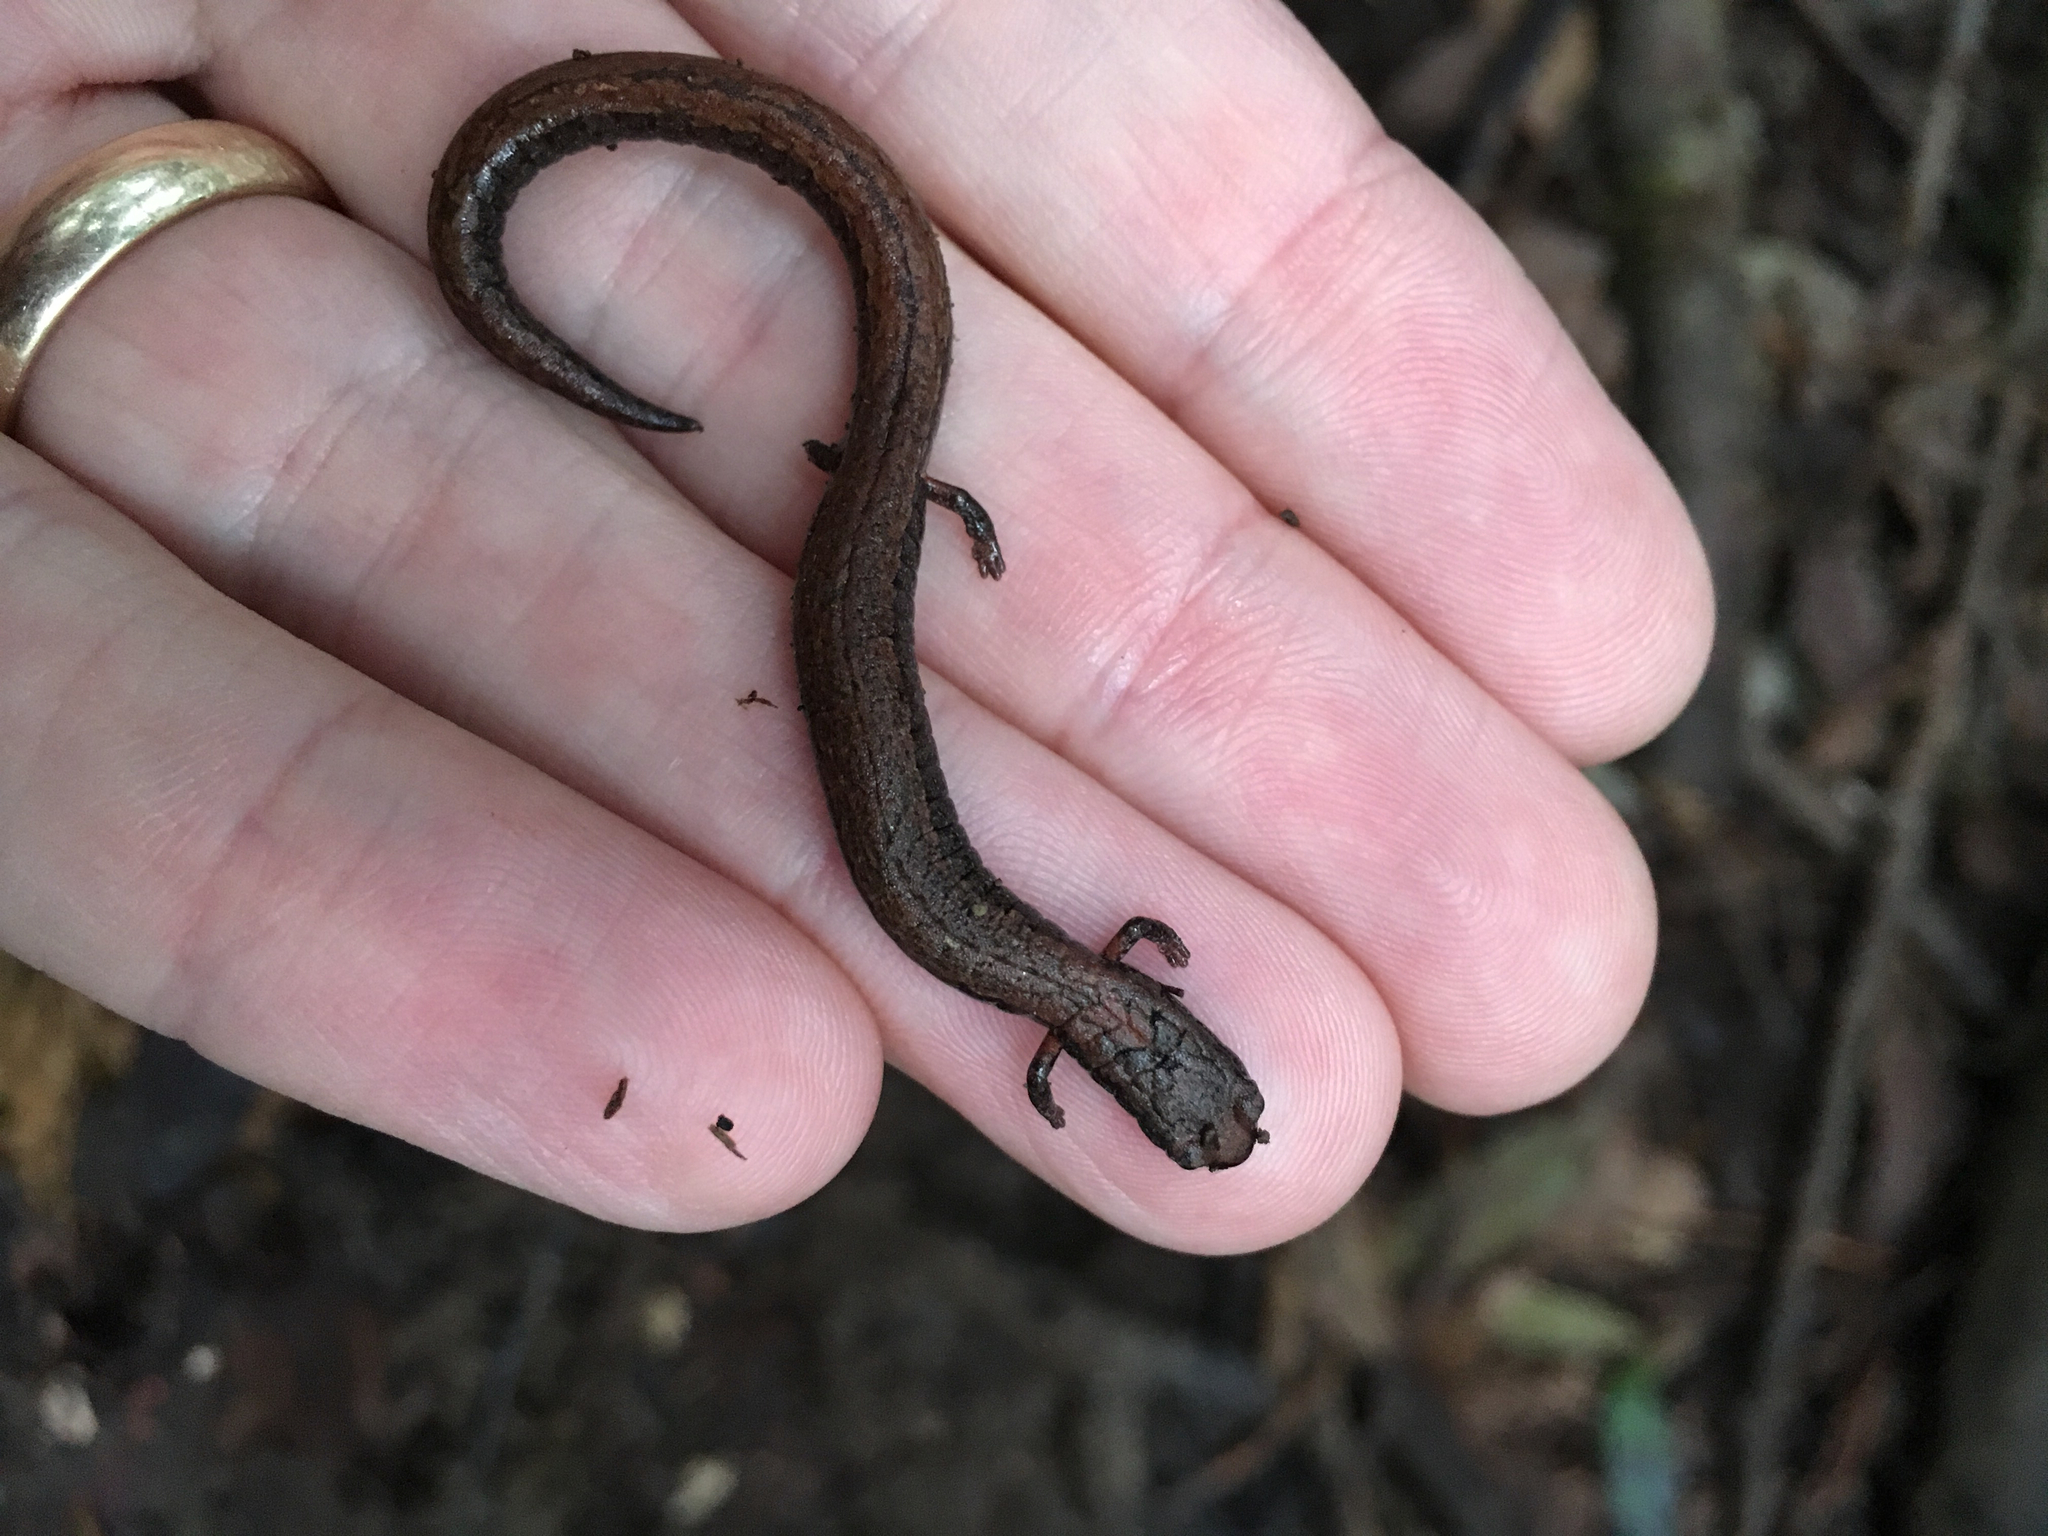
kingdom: Animalia
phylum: Chordata
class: Amphibia
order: Caudata
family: Plethodontidae
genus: Batrachoseps
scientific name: Batrachoseps attenuatus
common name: California slender salamander
